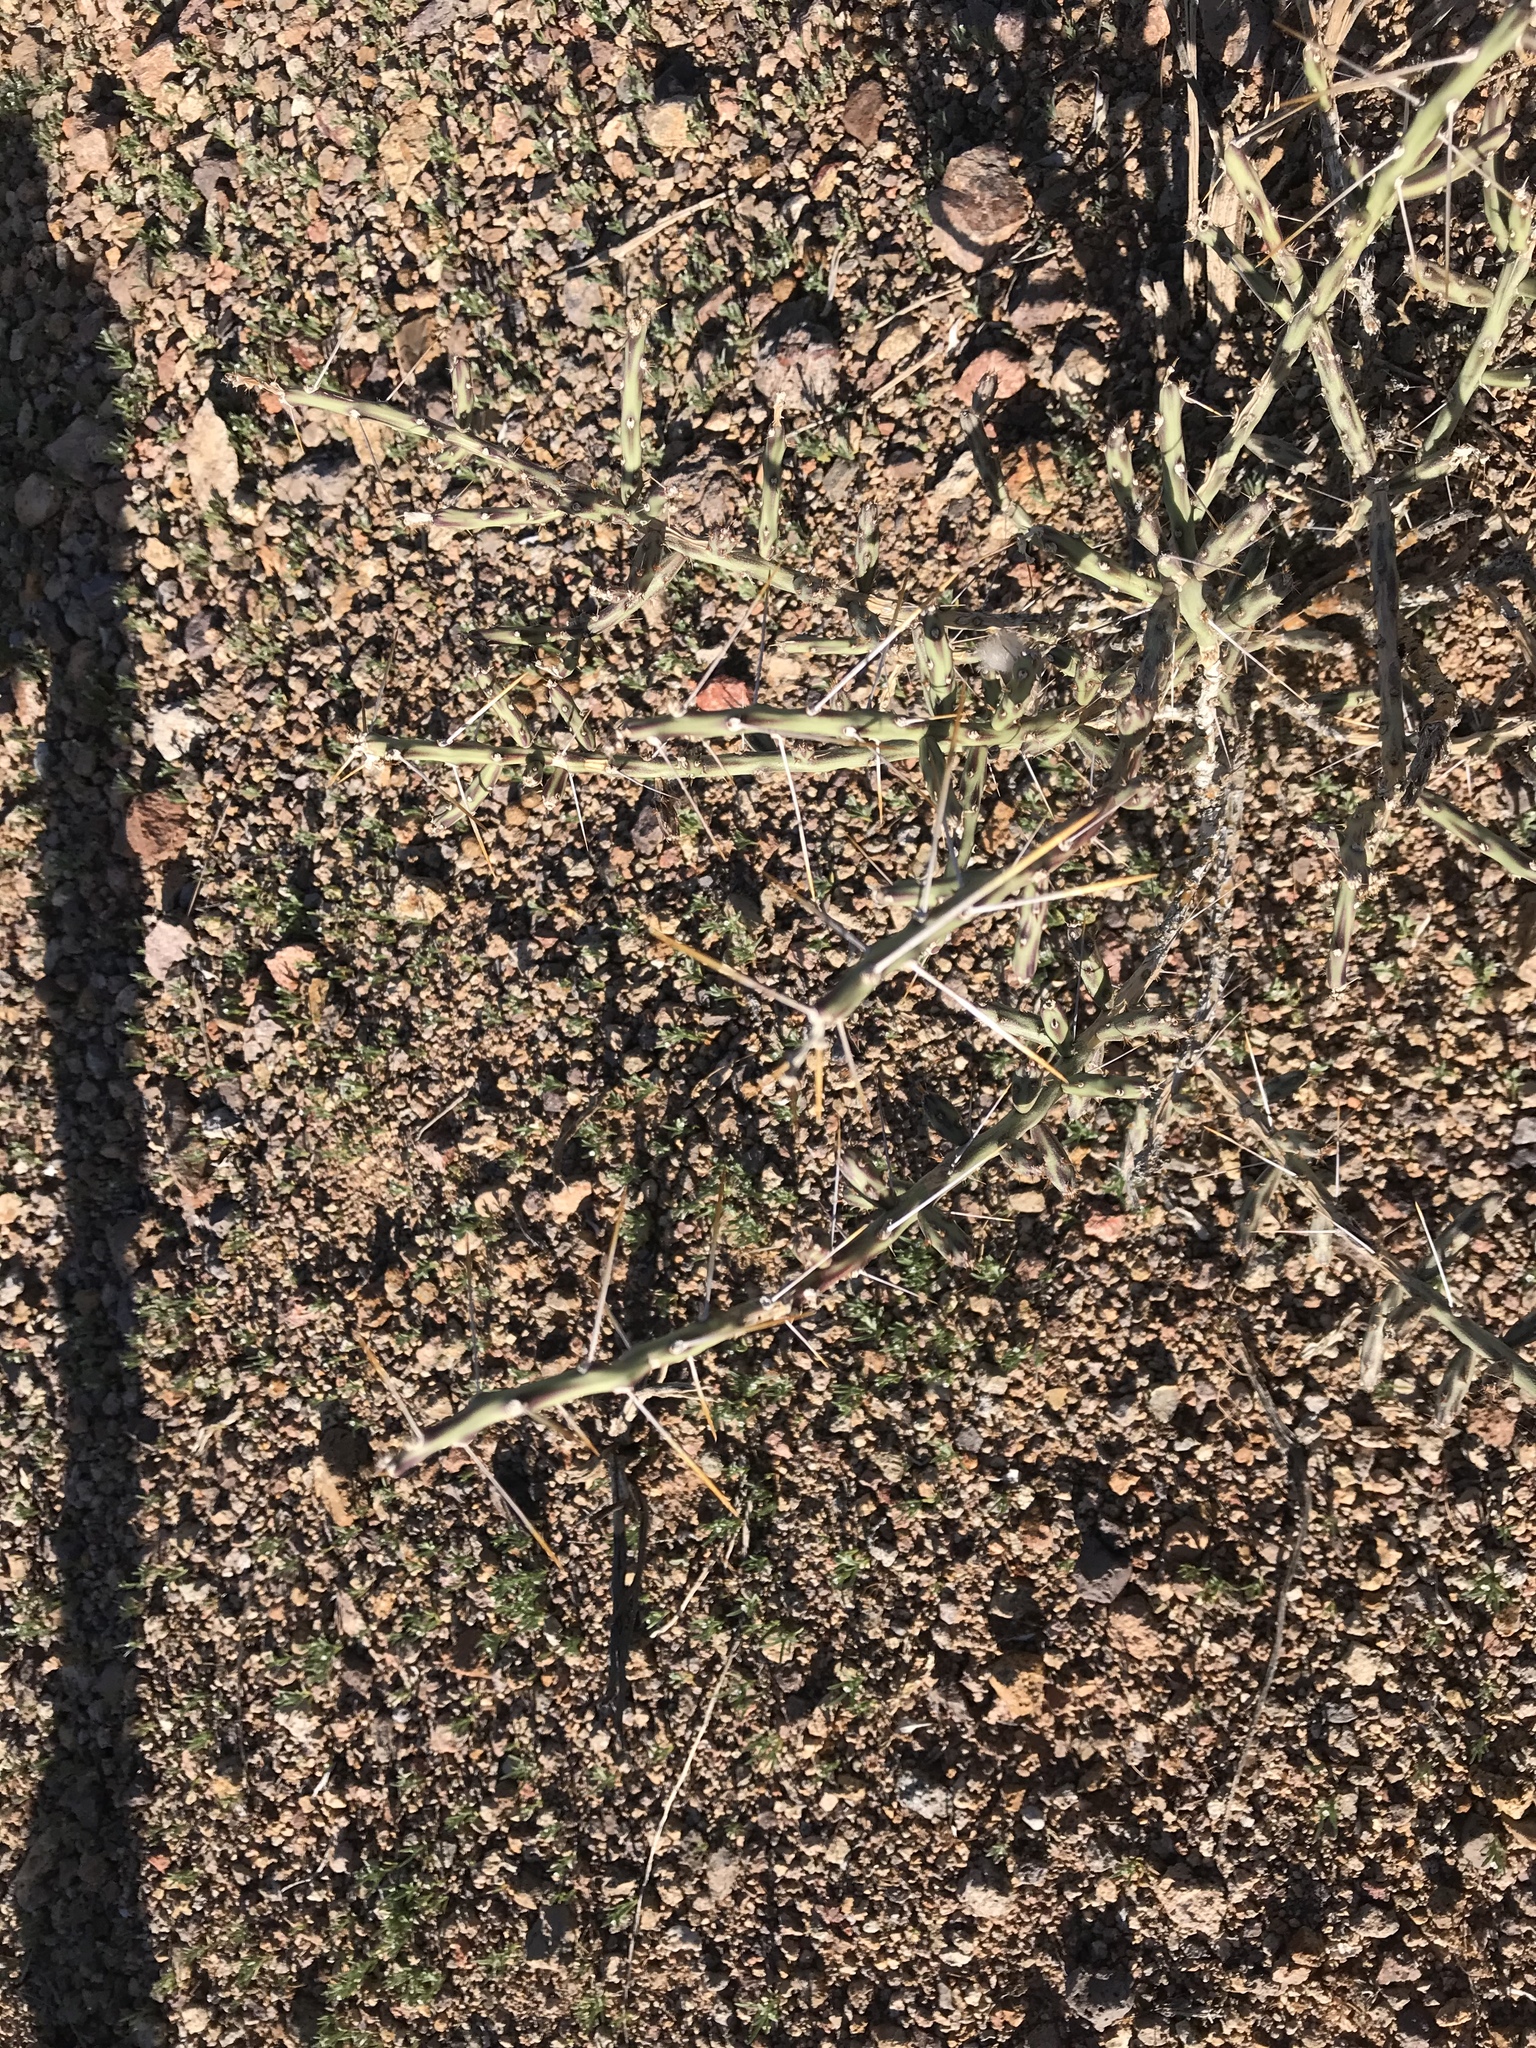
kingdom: Plantae
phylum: Tracheophyta
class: Magnoliopsida
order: Caryophyllales
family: Cactaceae
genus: Cylindropuntia
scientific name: Cylindropuntia leptocaulis
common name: Christmas cactus
